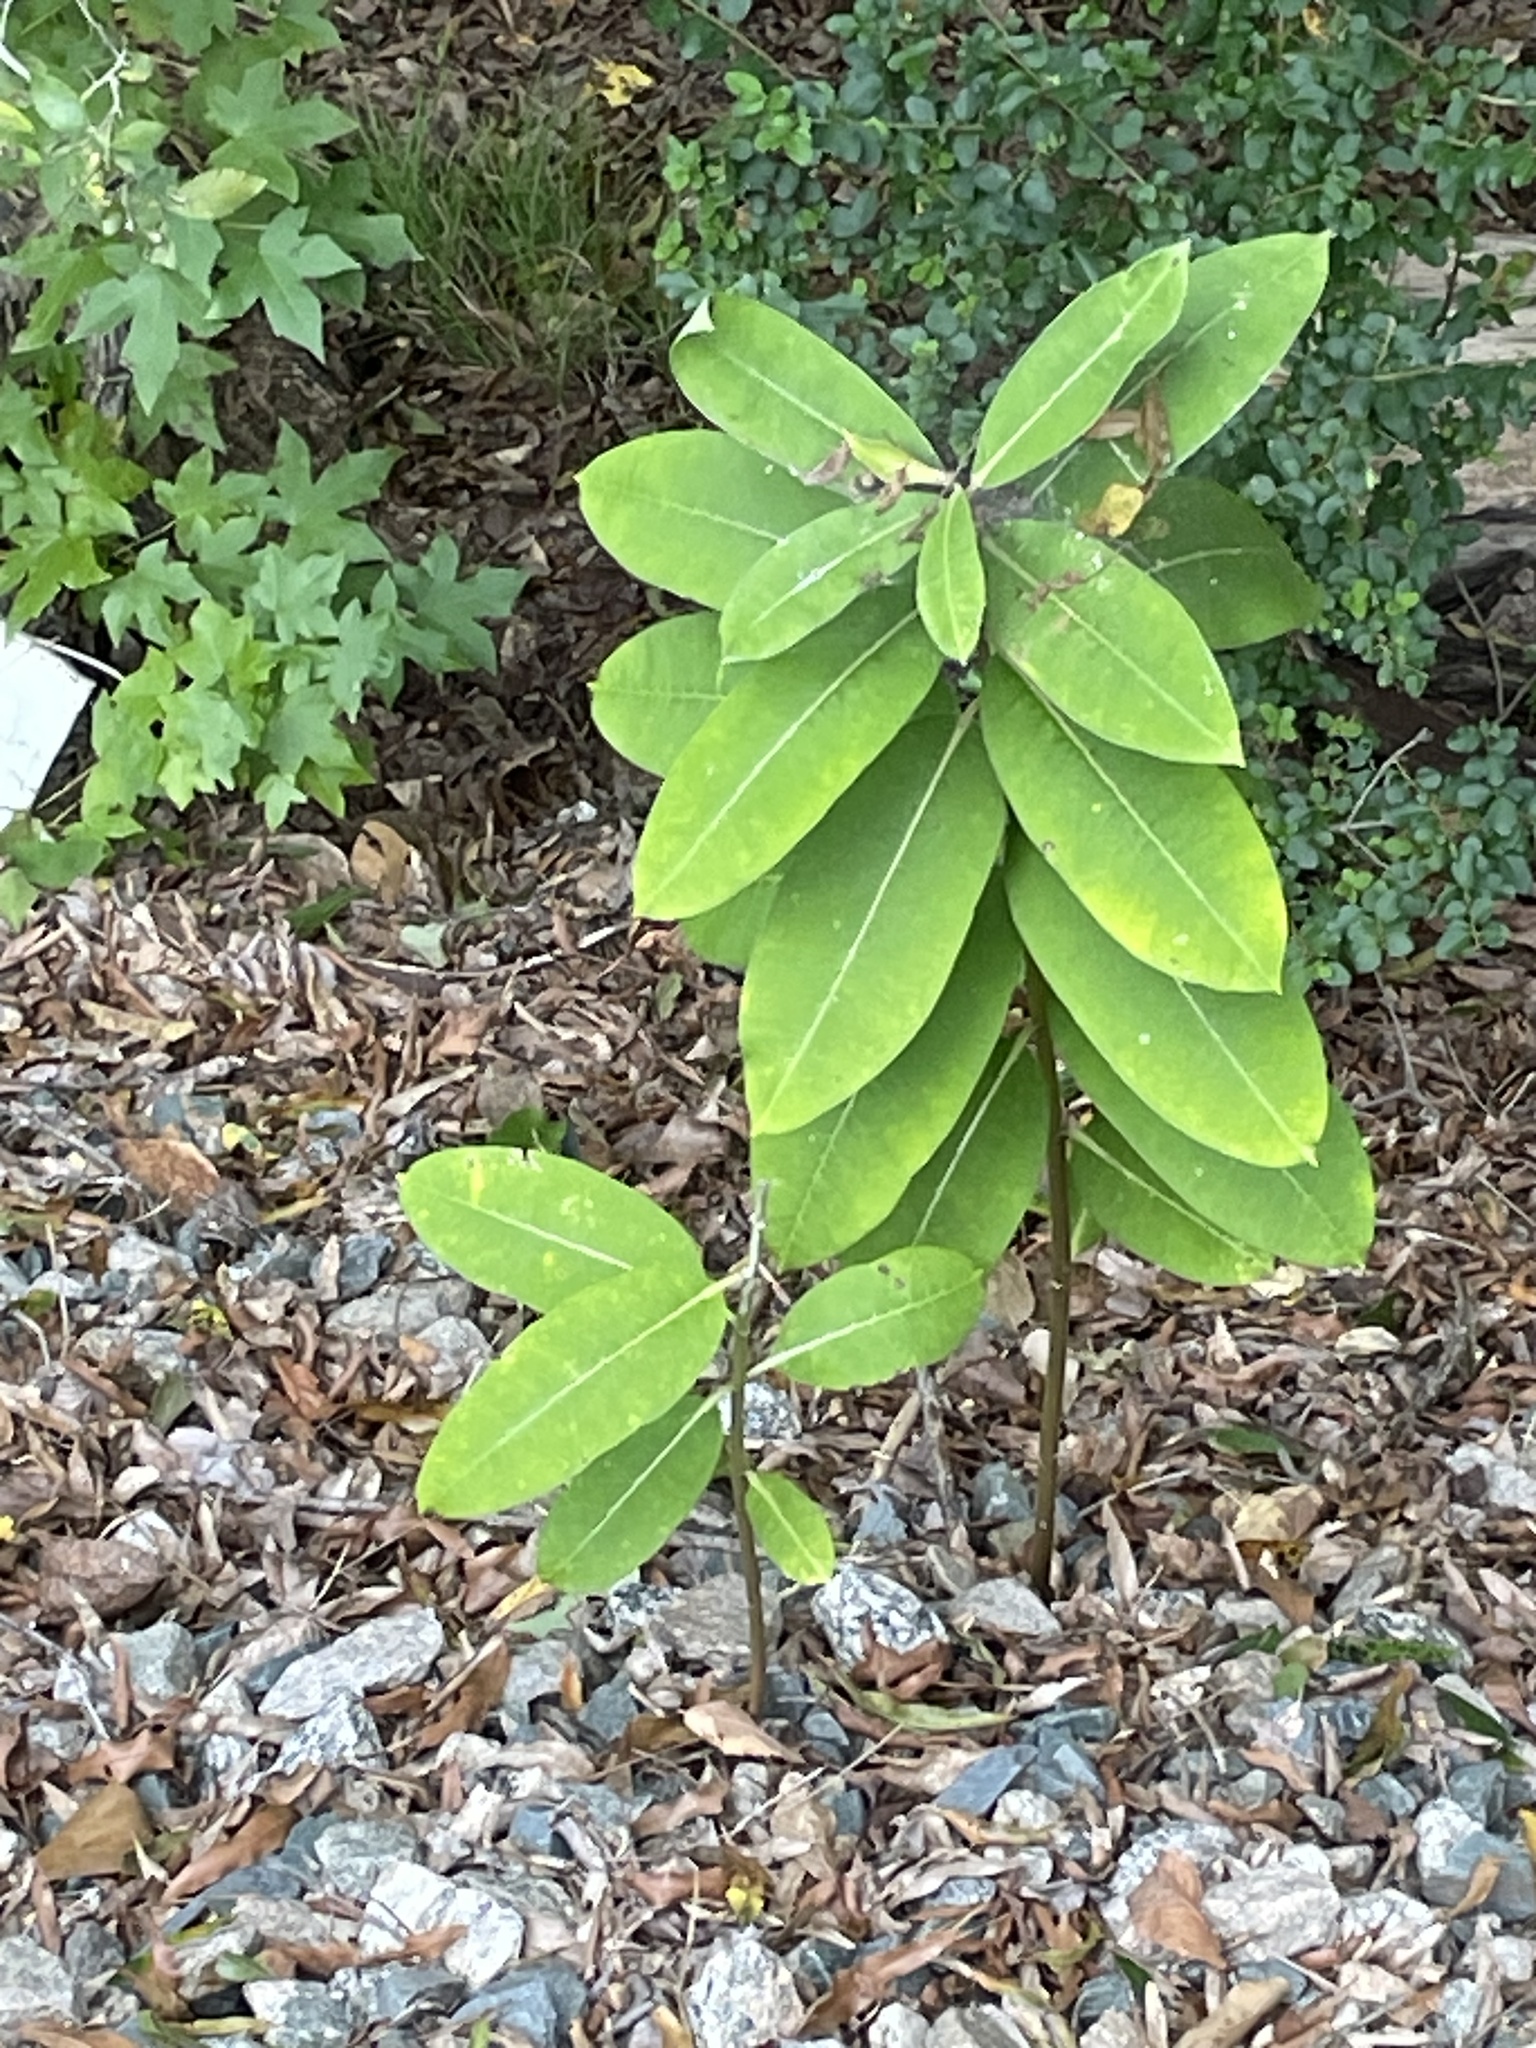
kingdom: Plantae
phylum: Tracheophyta
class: Magnoliopsida
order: Gentianales
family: Apocynaceae
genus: Asclepias
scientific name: Asclepias syriaca
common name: Common milkweed
